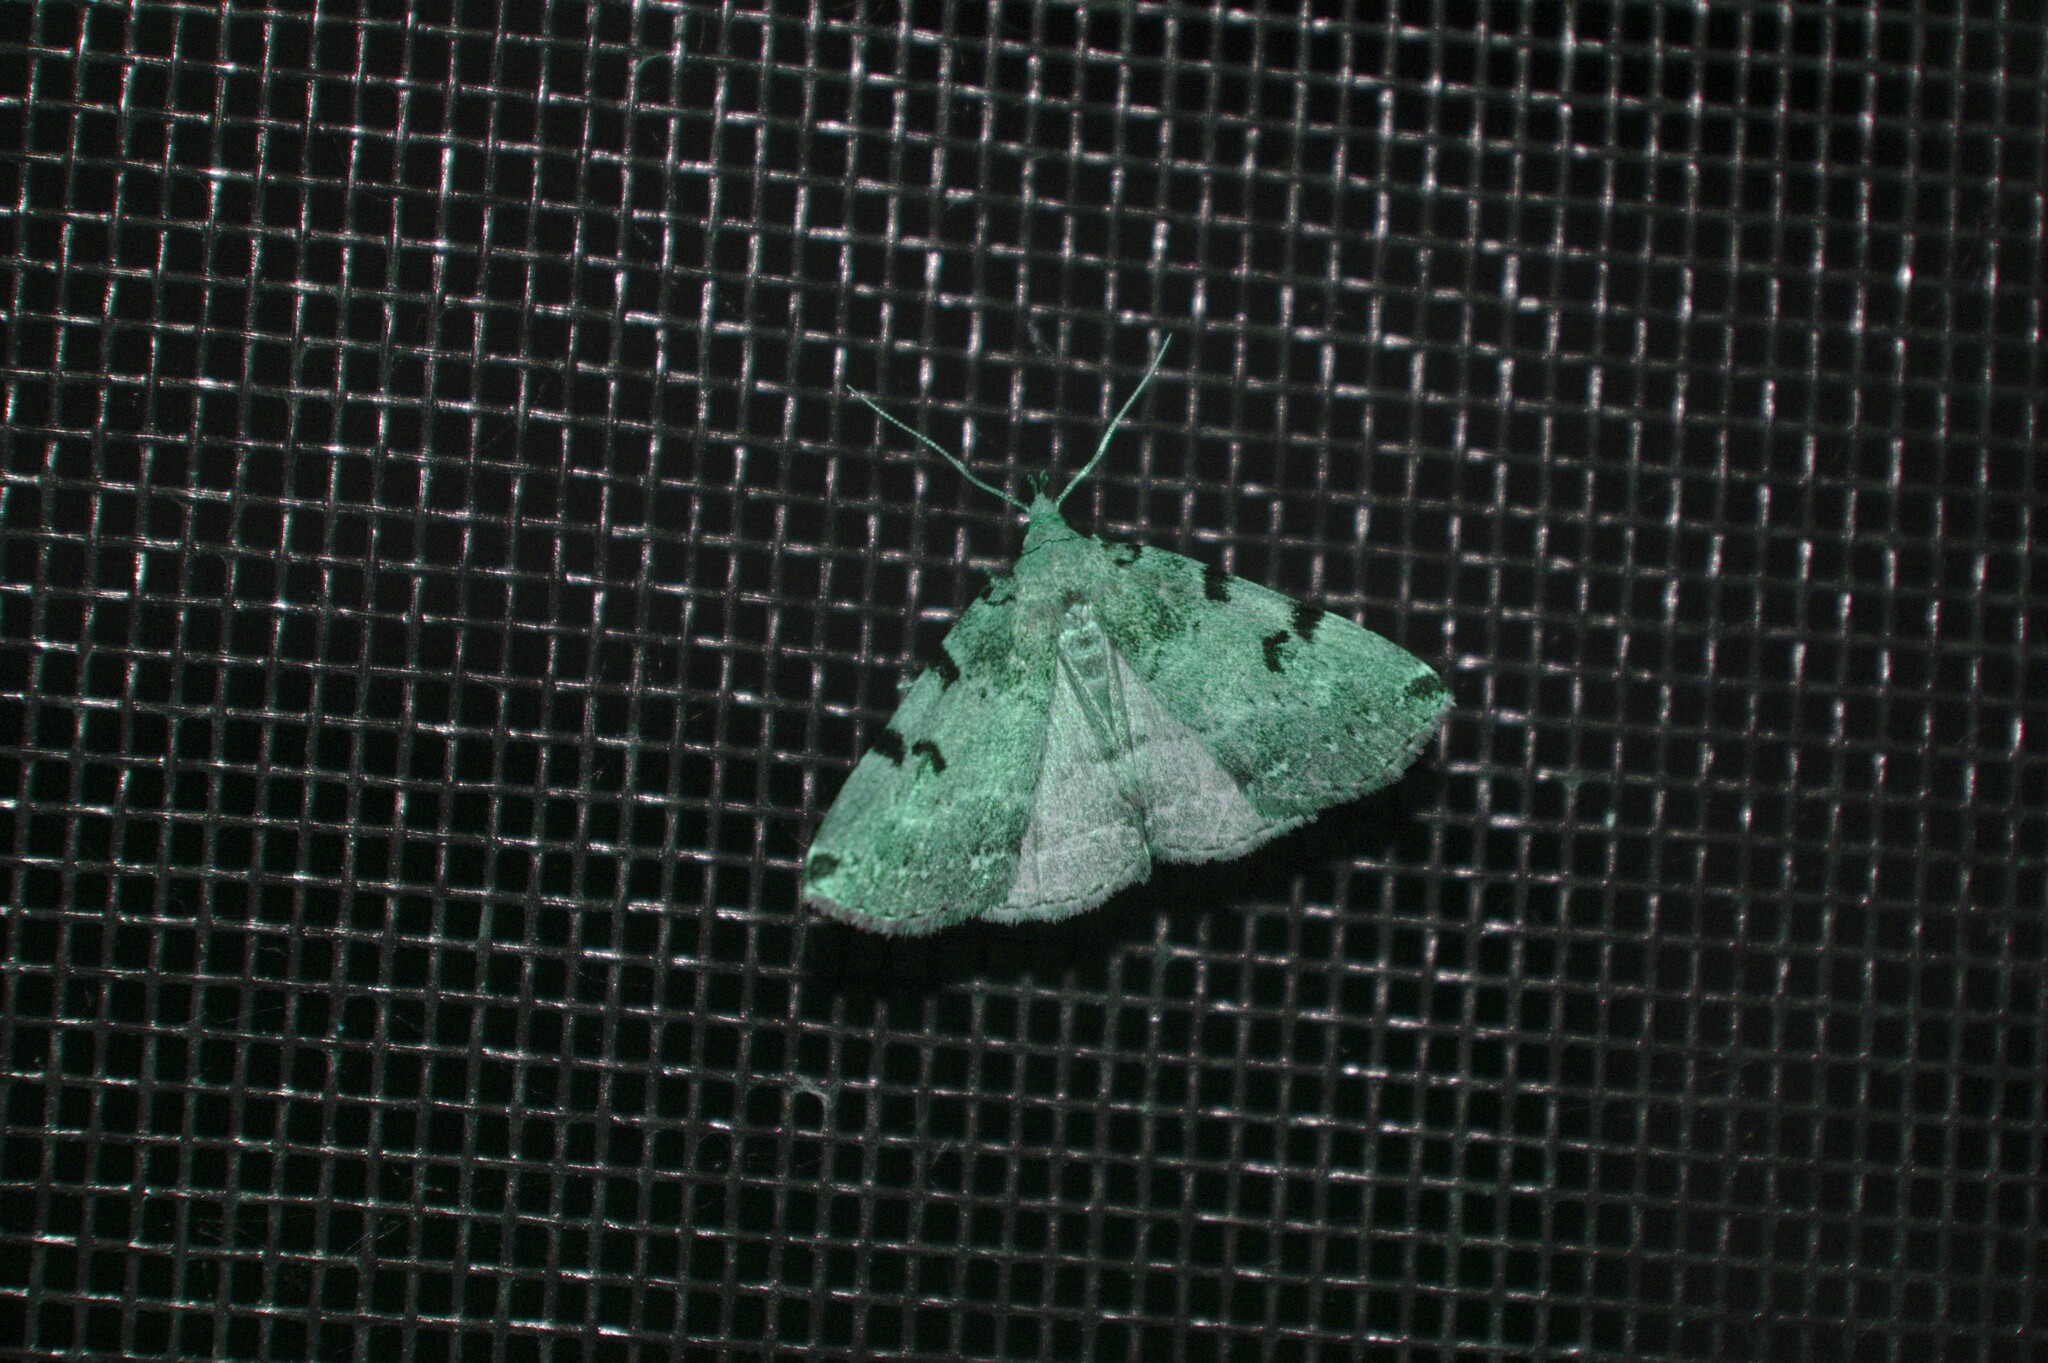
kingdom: Animalia
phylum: Arthropoda
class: Insecta
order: Lepidoptera
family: Erebidae
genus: Zanclognatha
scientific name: Zanclognatha lituralis
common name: Lettered fan-foot
